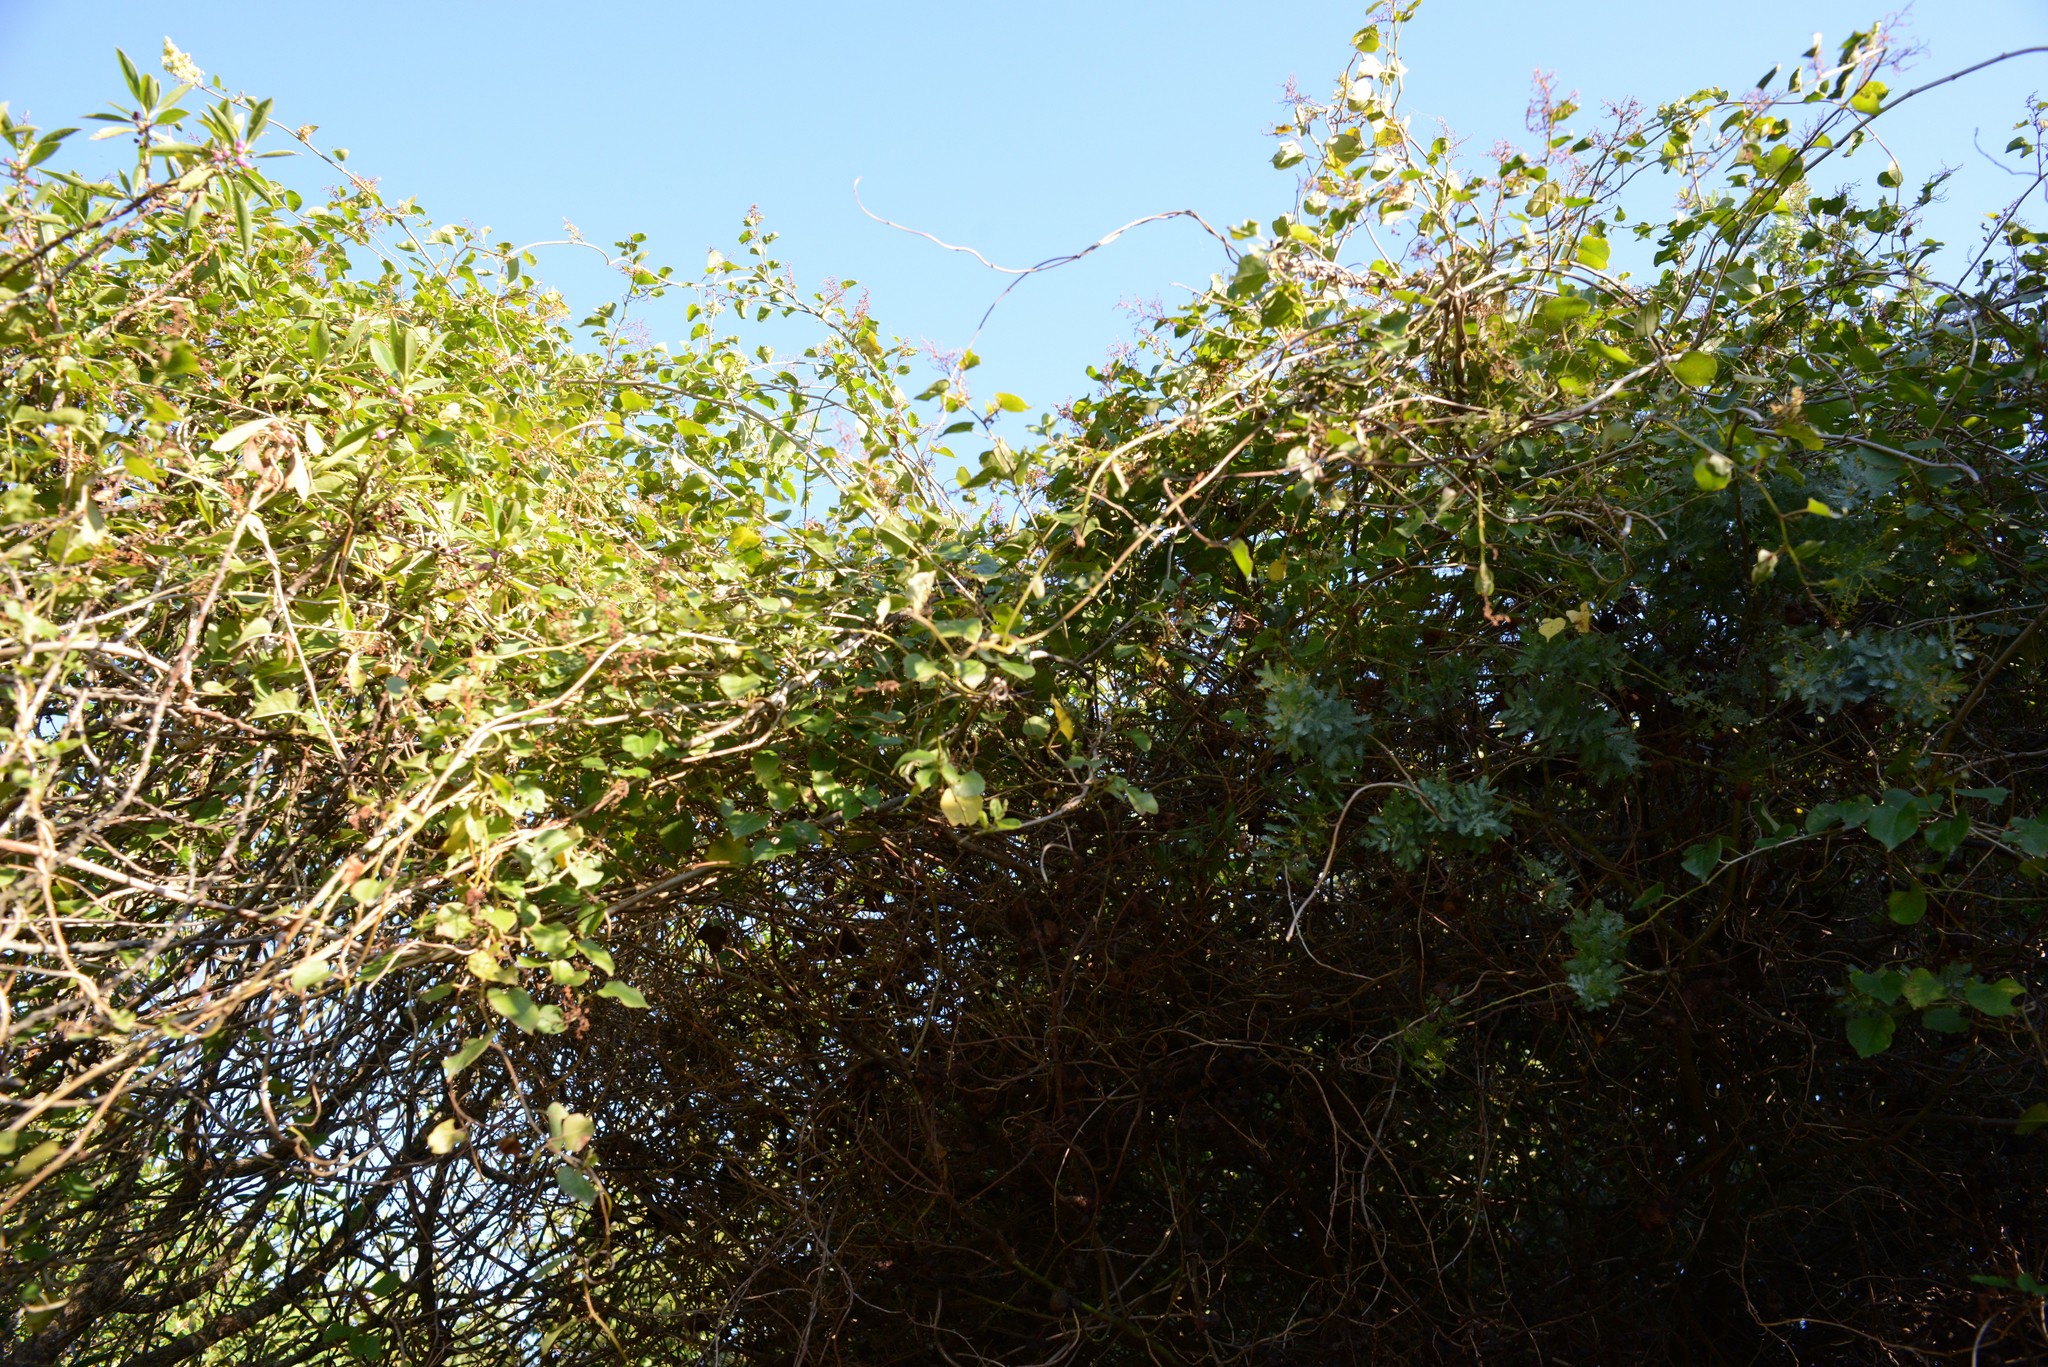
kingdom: Plantae
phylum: Tracheophyta
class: Magnoliopsida
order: Caryophyllales
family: Polygonaceae
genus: Muehlenbeckia
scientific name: Muehlenbeckia australis
